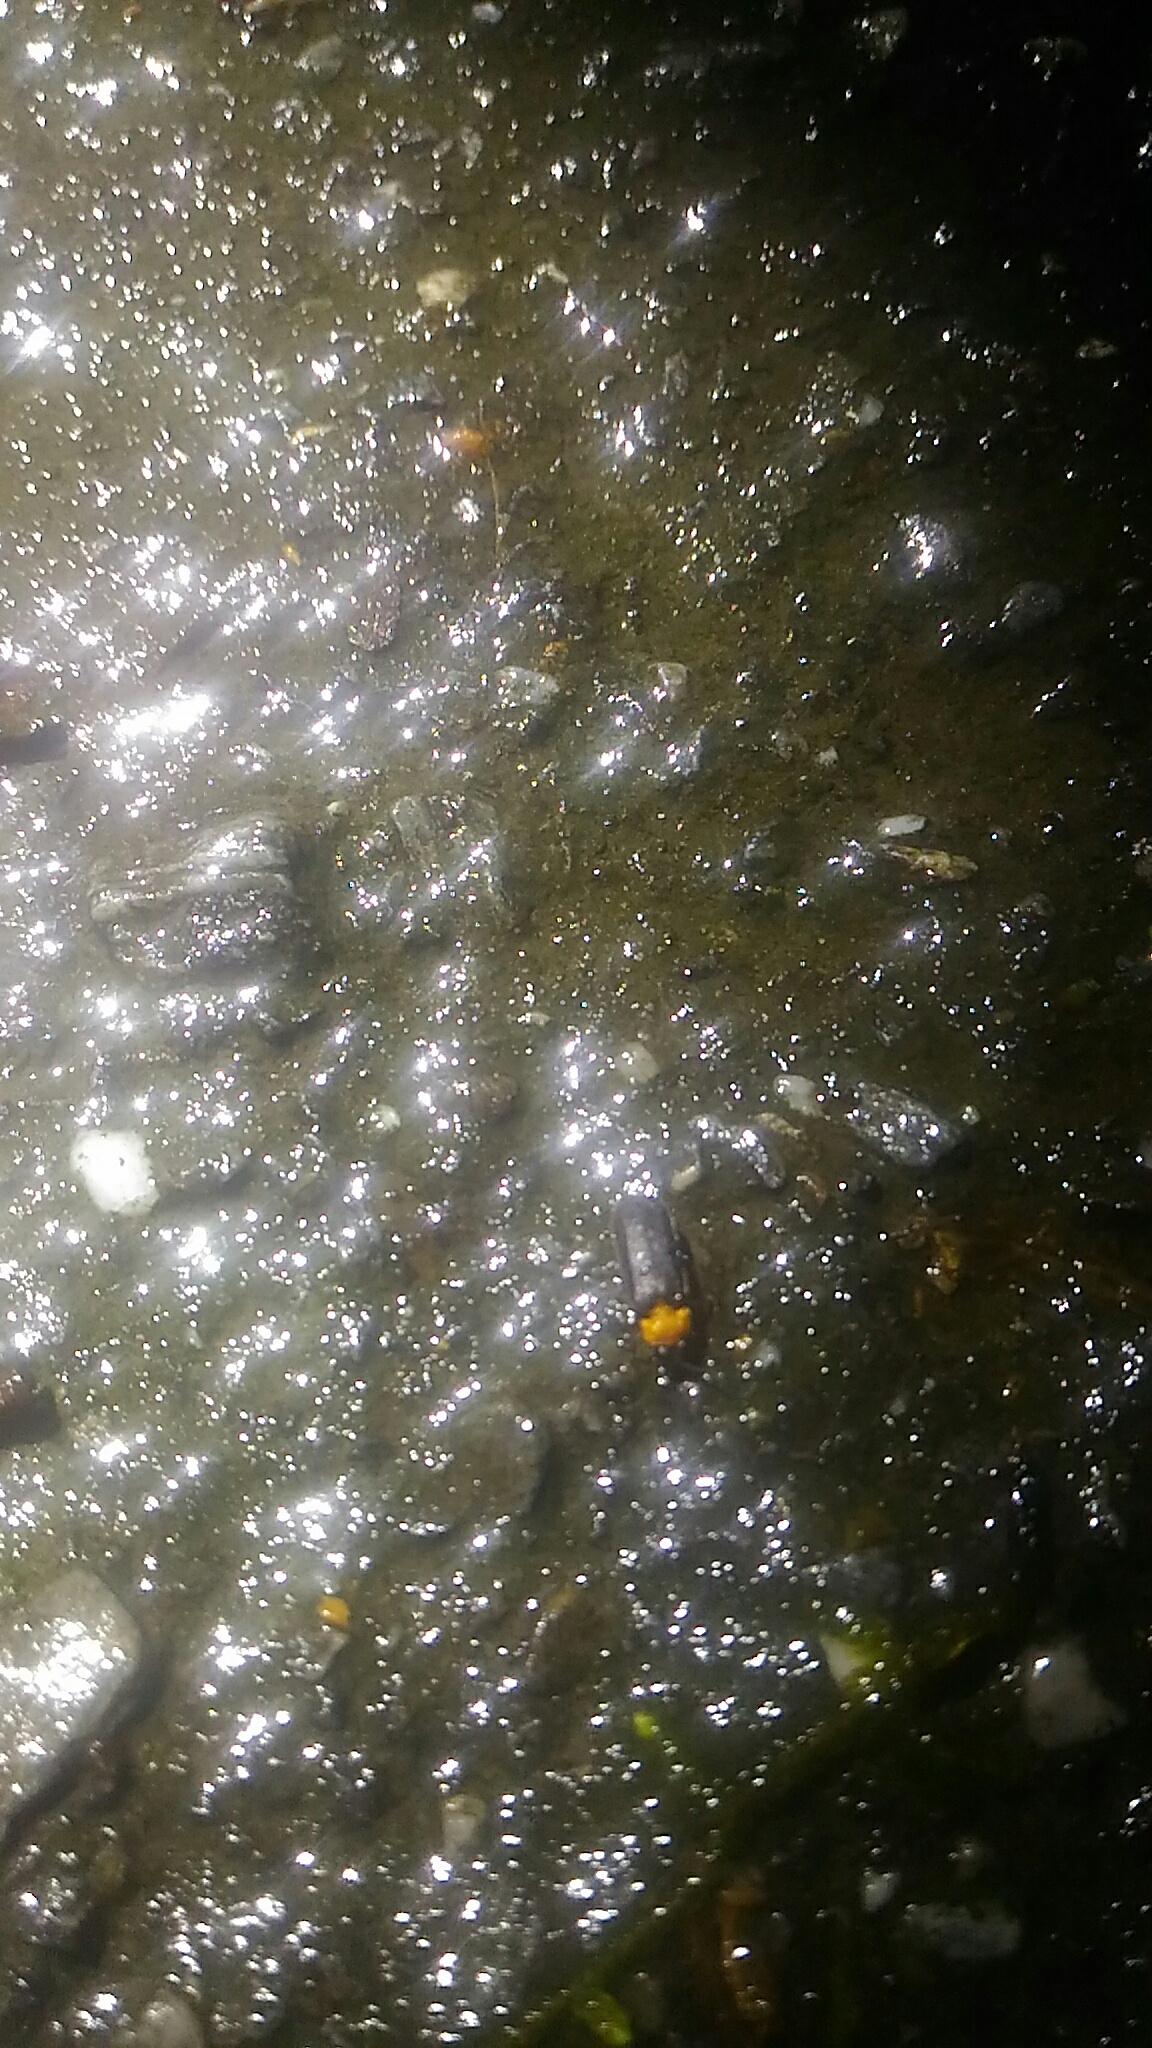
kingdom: Animalia
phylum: Arthropoda
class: Insecta
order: Coleoptera
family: Lampyridae
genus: Curtos
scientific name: Curtos mundulus
